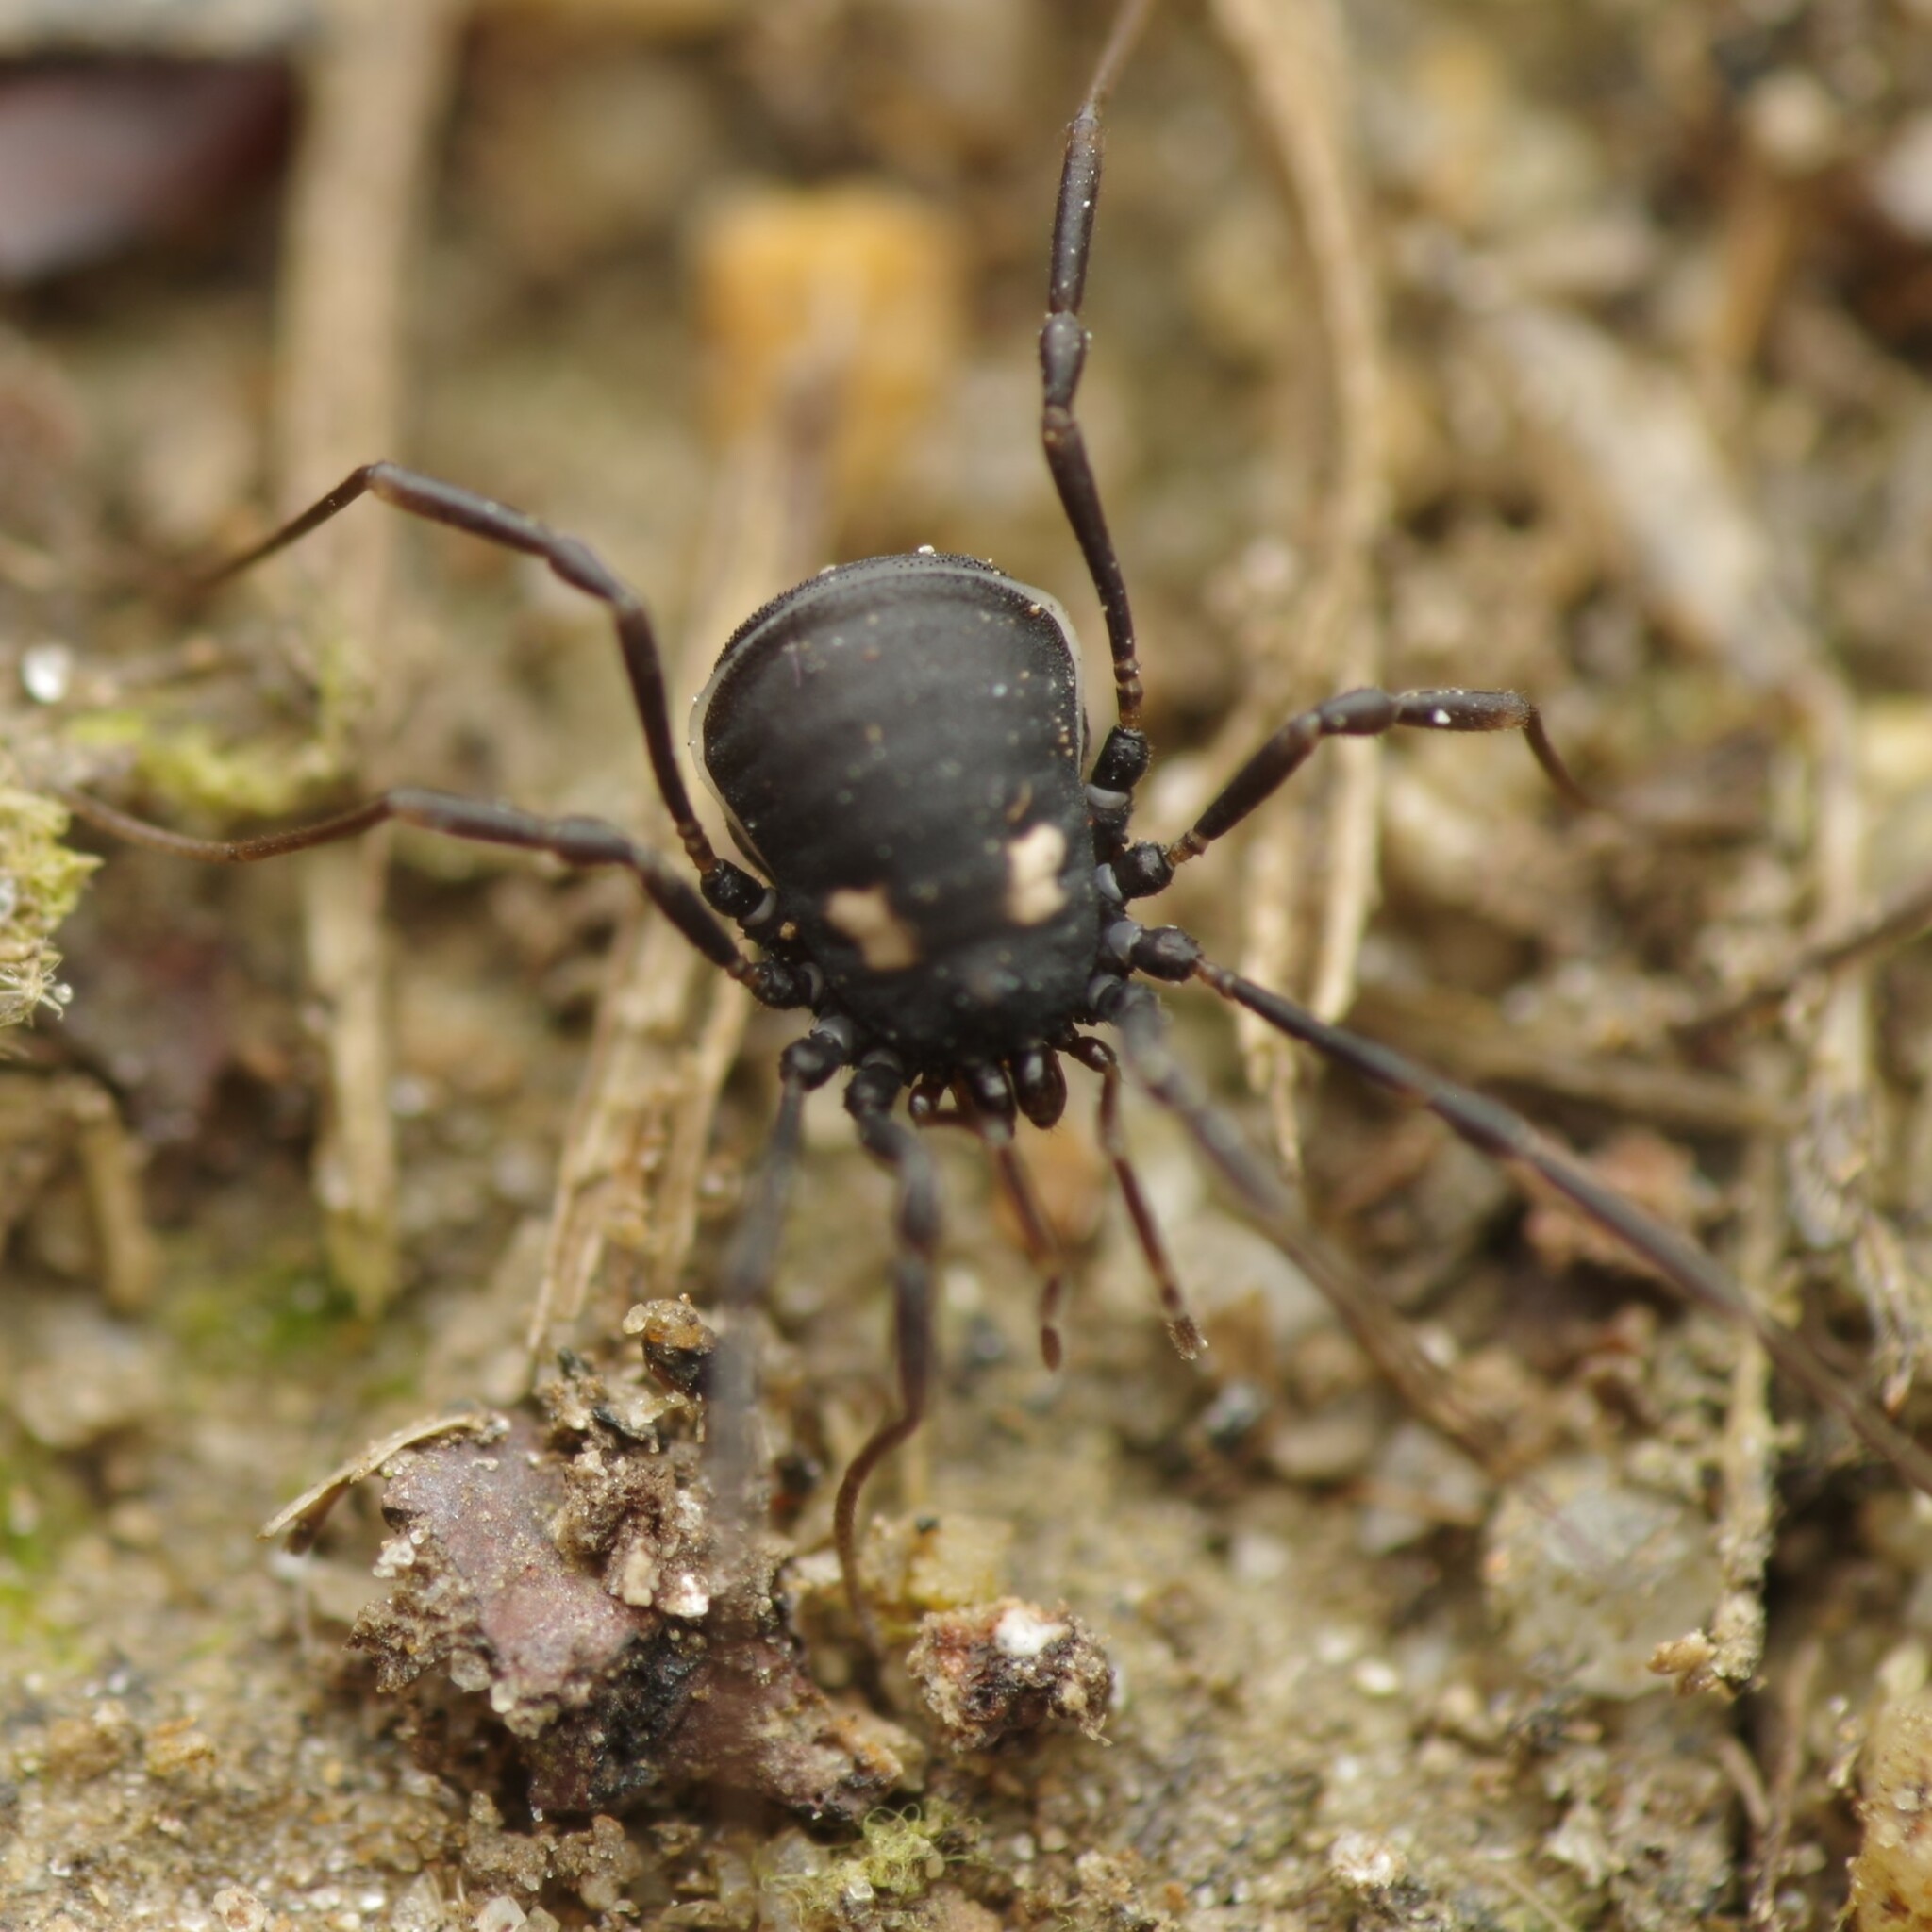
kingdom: Animalia
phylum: Arthropoda
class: Arachnida
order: Opiliones
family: Nemastomatidae
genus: Nemastoma
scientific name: Nemastoma bimaculatum
